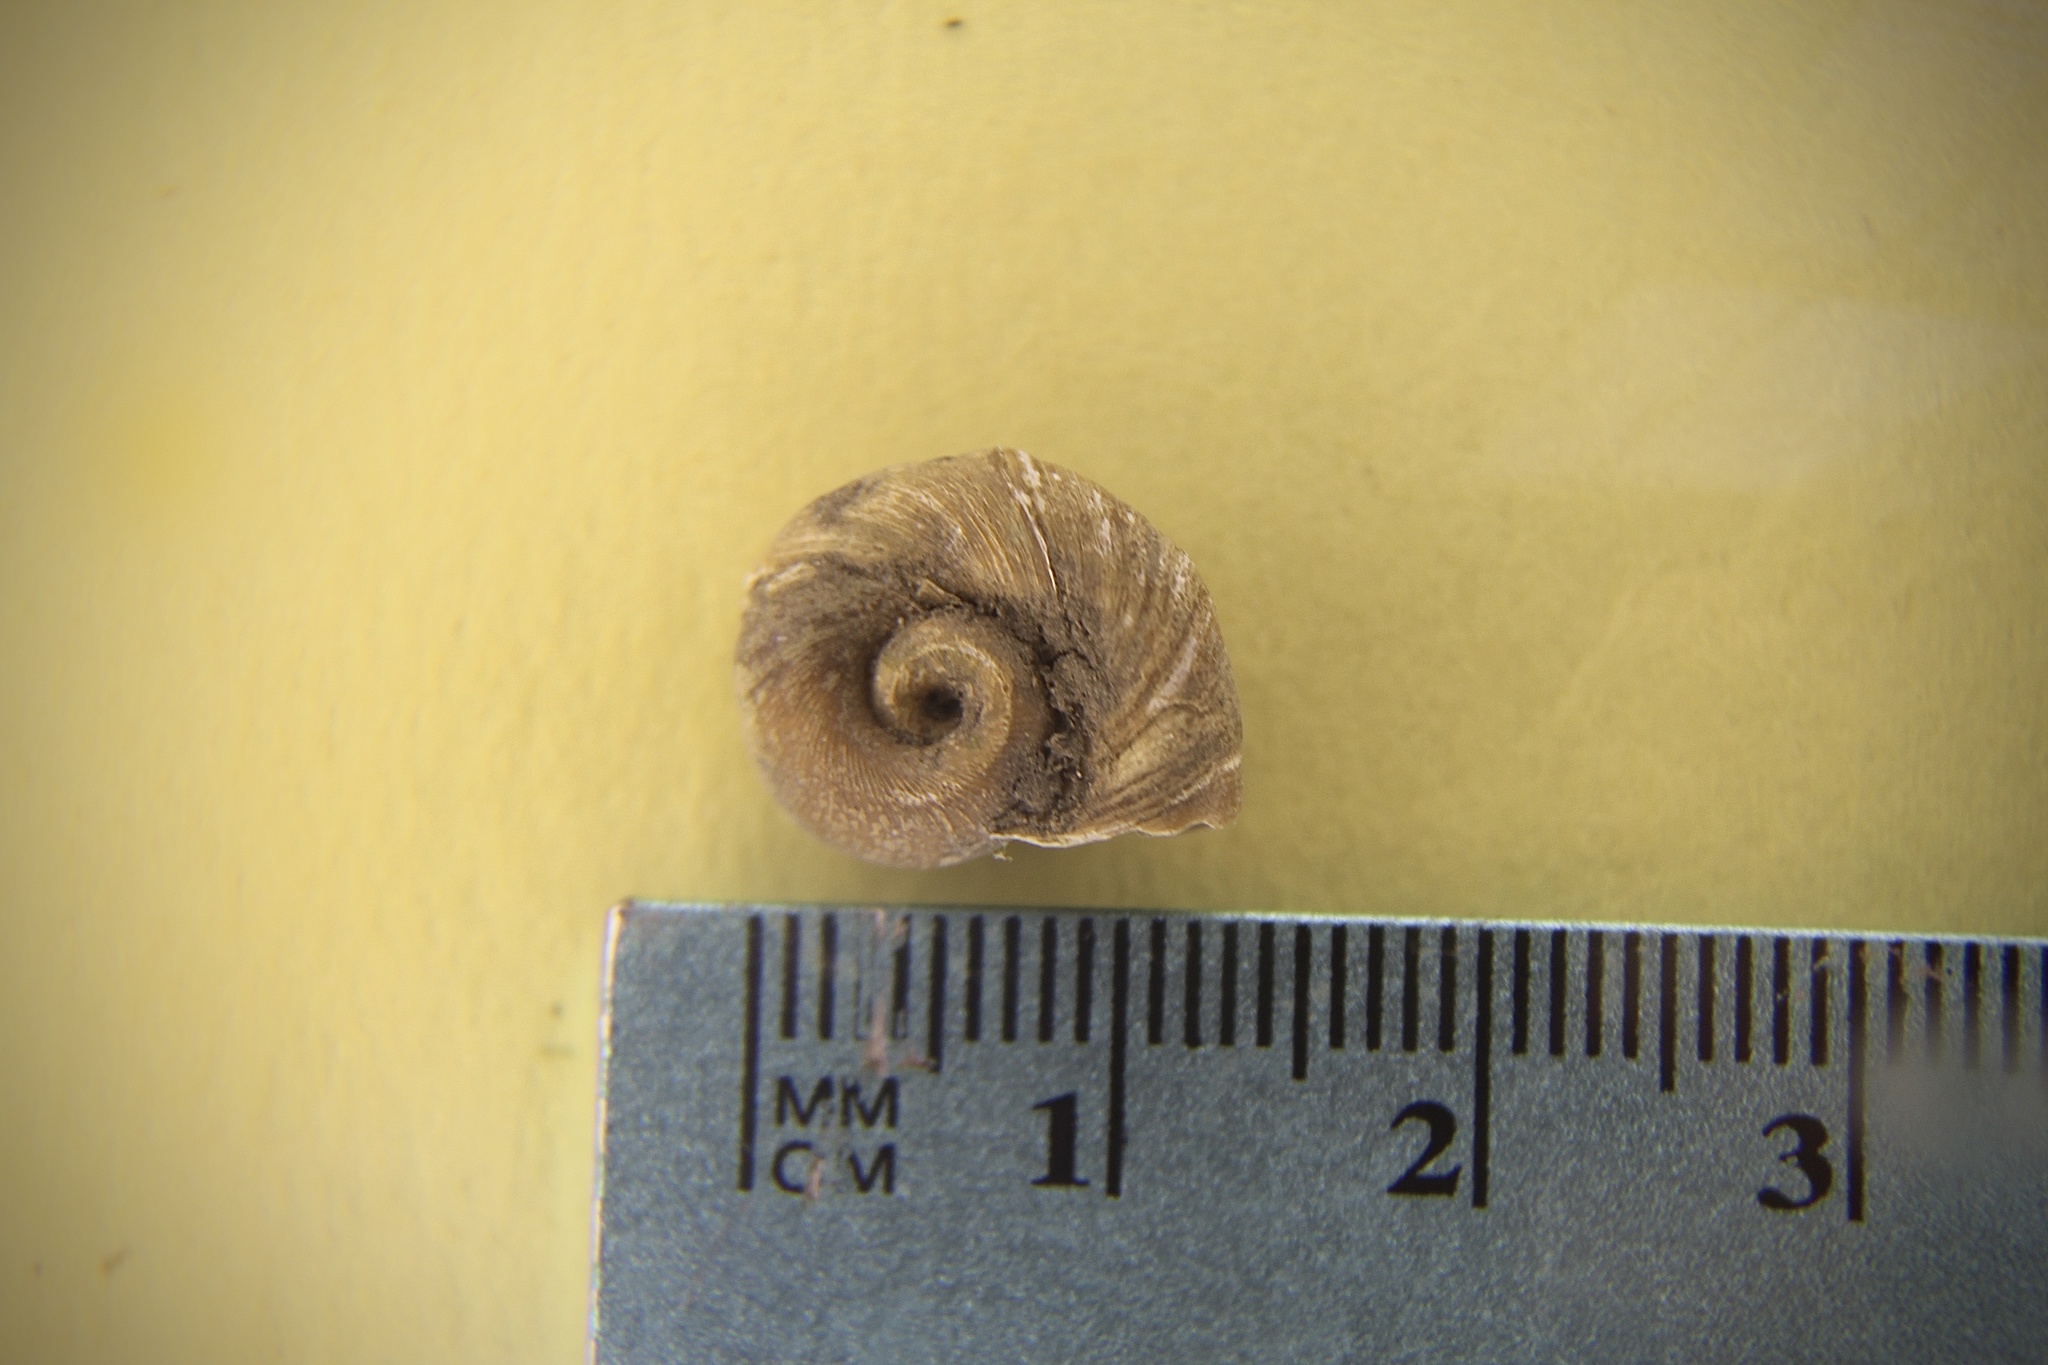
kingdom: Animalia
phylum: Mollusca
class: Gastropoda
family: Planorbidae
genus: Planorbella
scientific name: Planorbella trivolvis
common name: Marsh rams-horn
